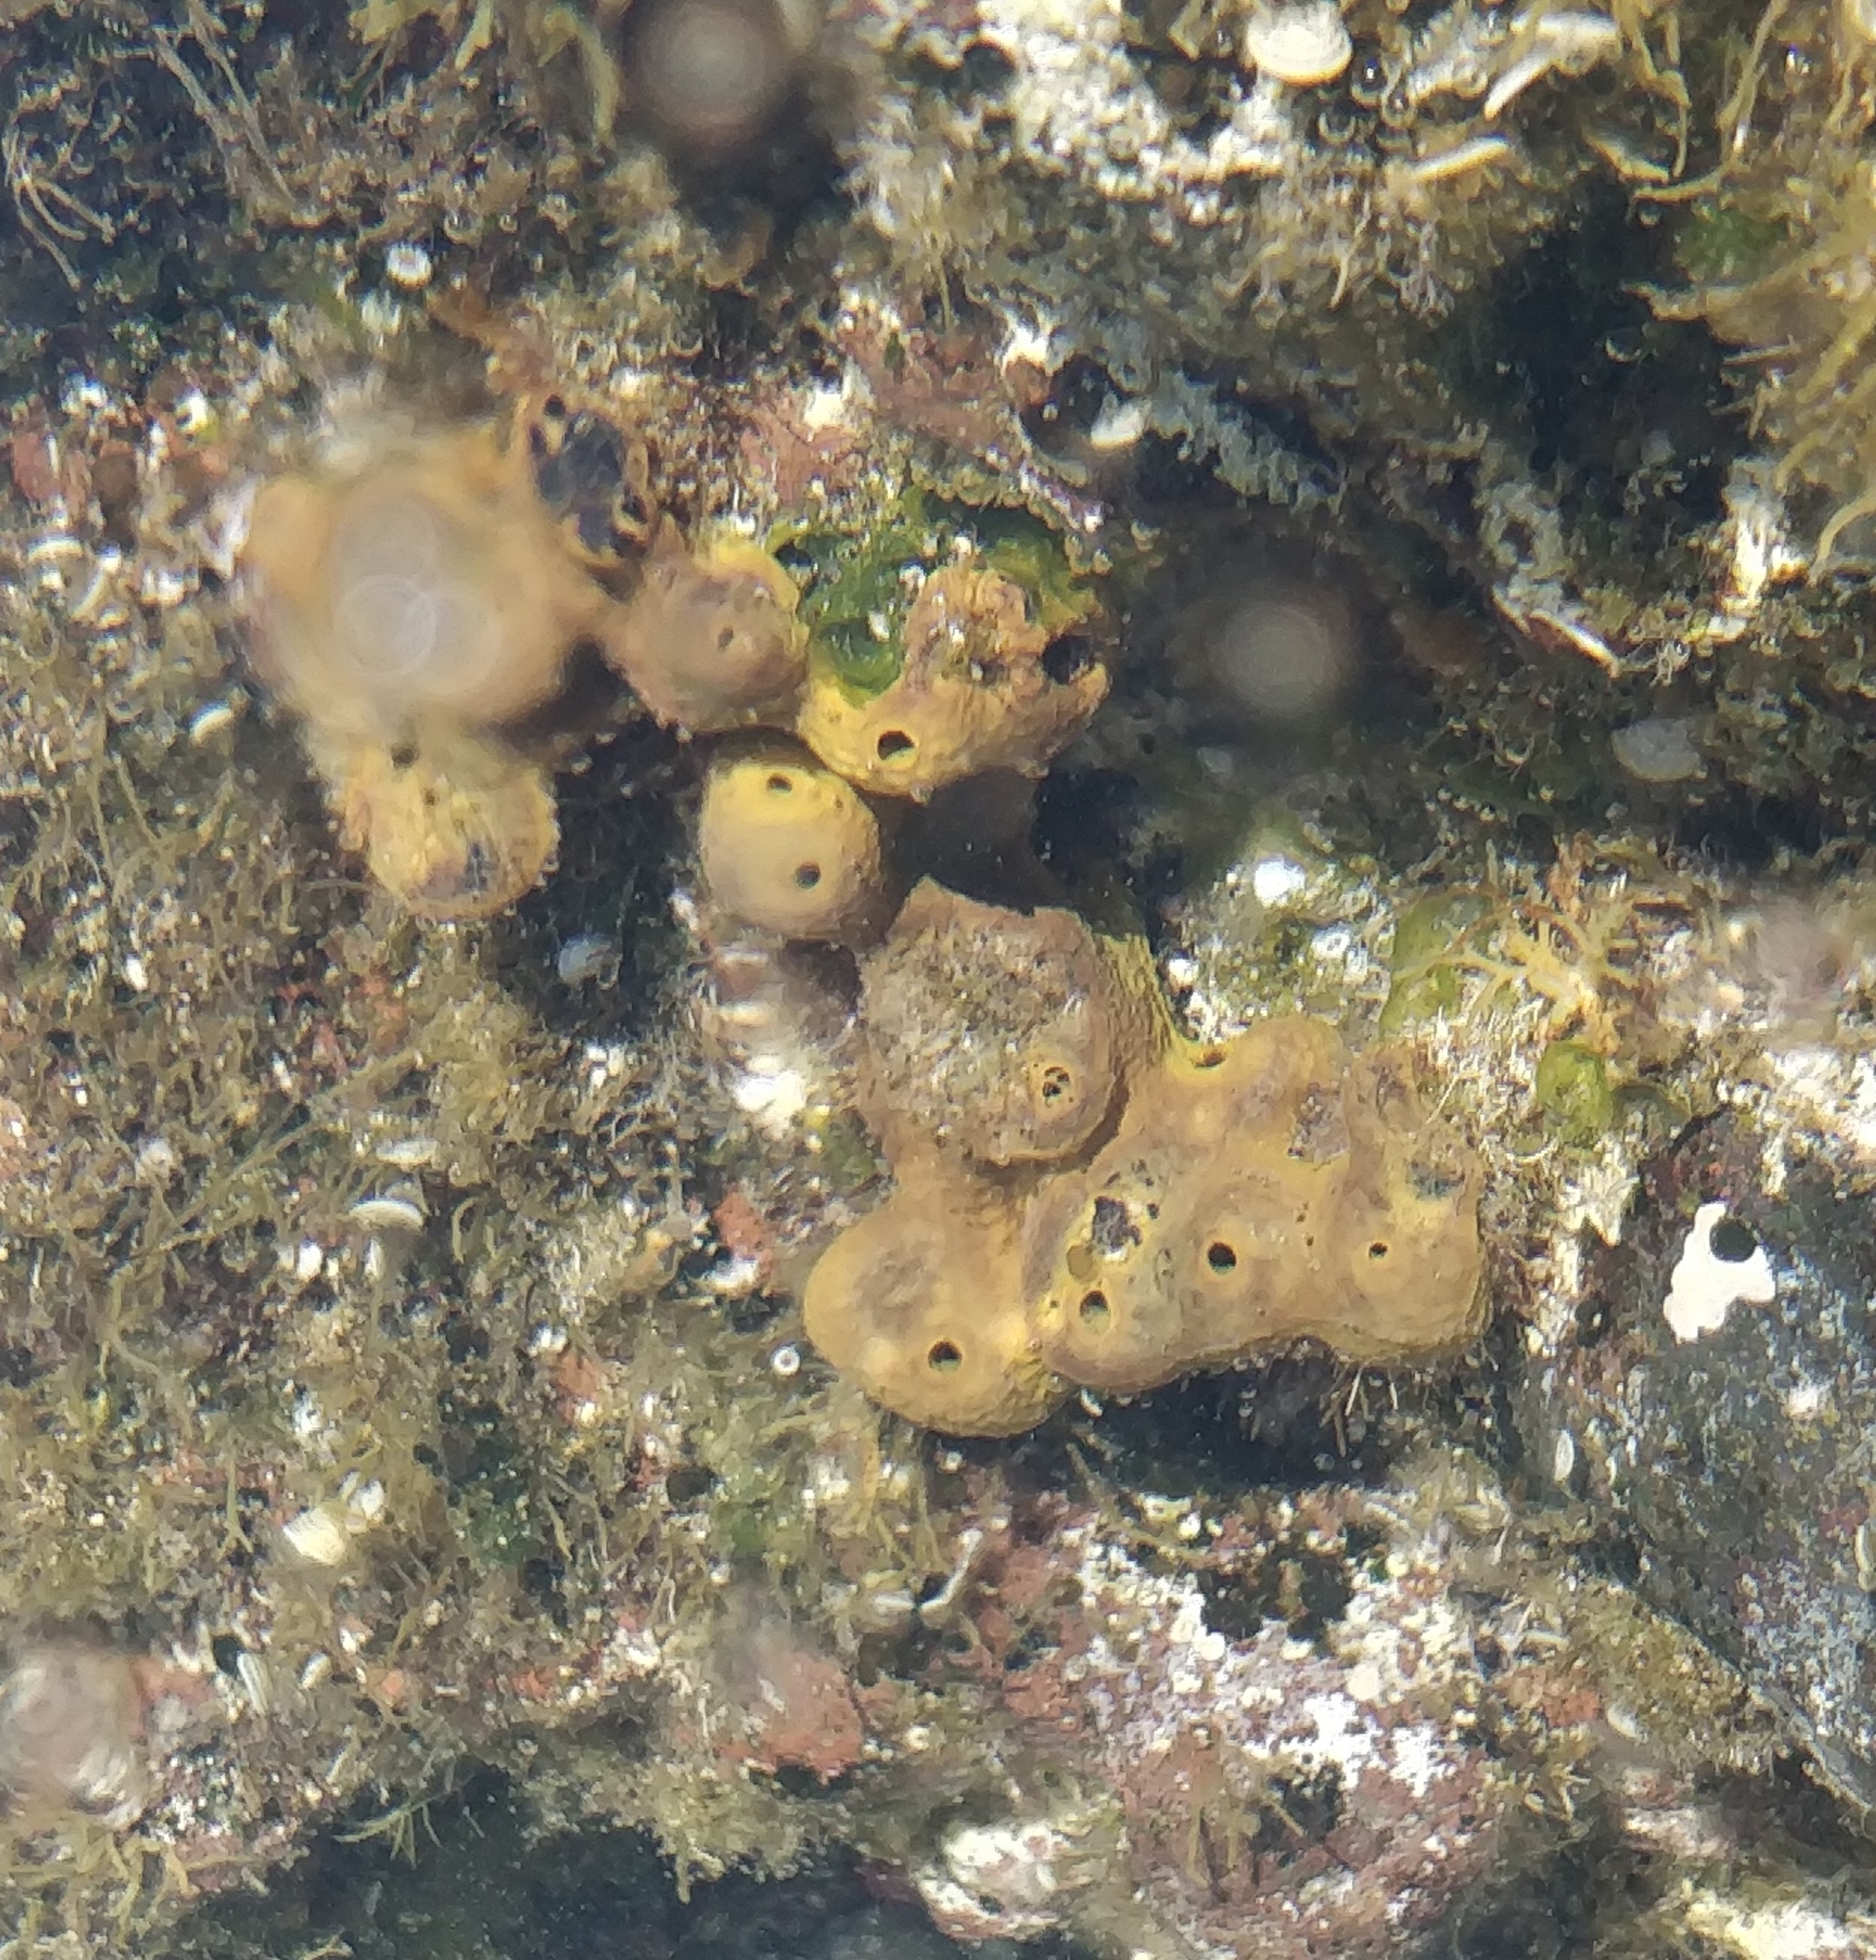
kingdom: Animalia
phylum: Porifera
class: Demospongiae
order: Verongiida
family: Aplysinidae
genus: Aplysina
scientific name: Aplysina aerophoba
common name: Aureate sponge
